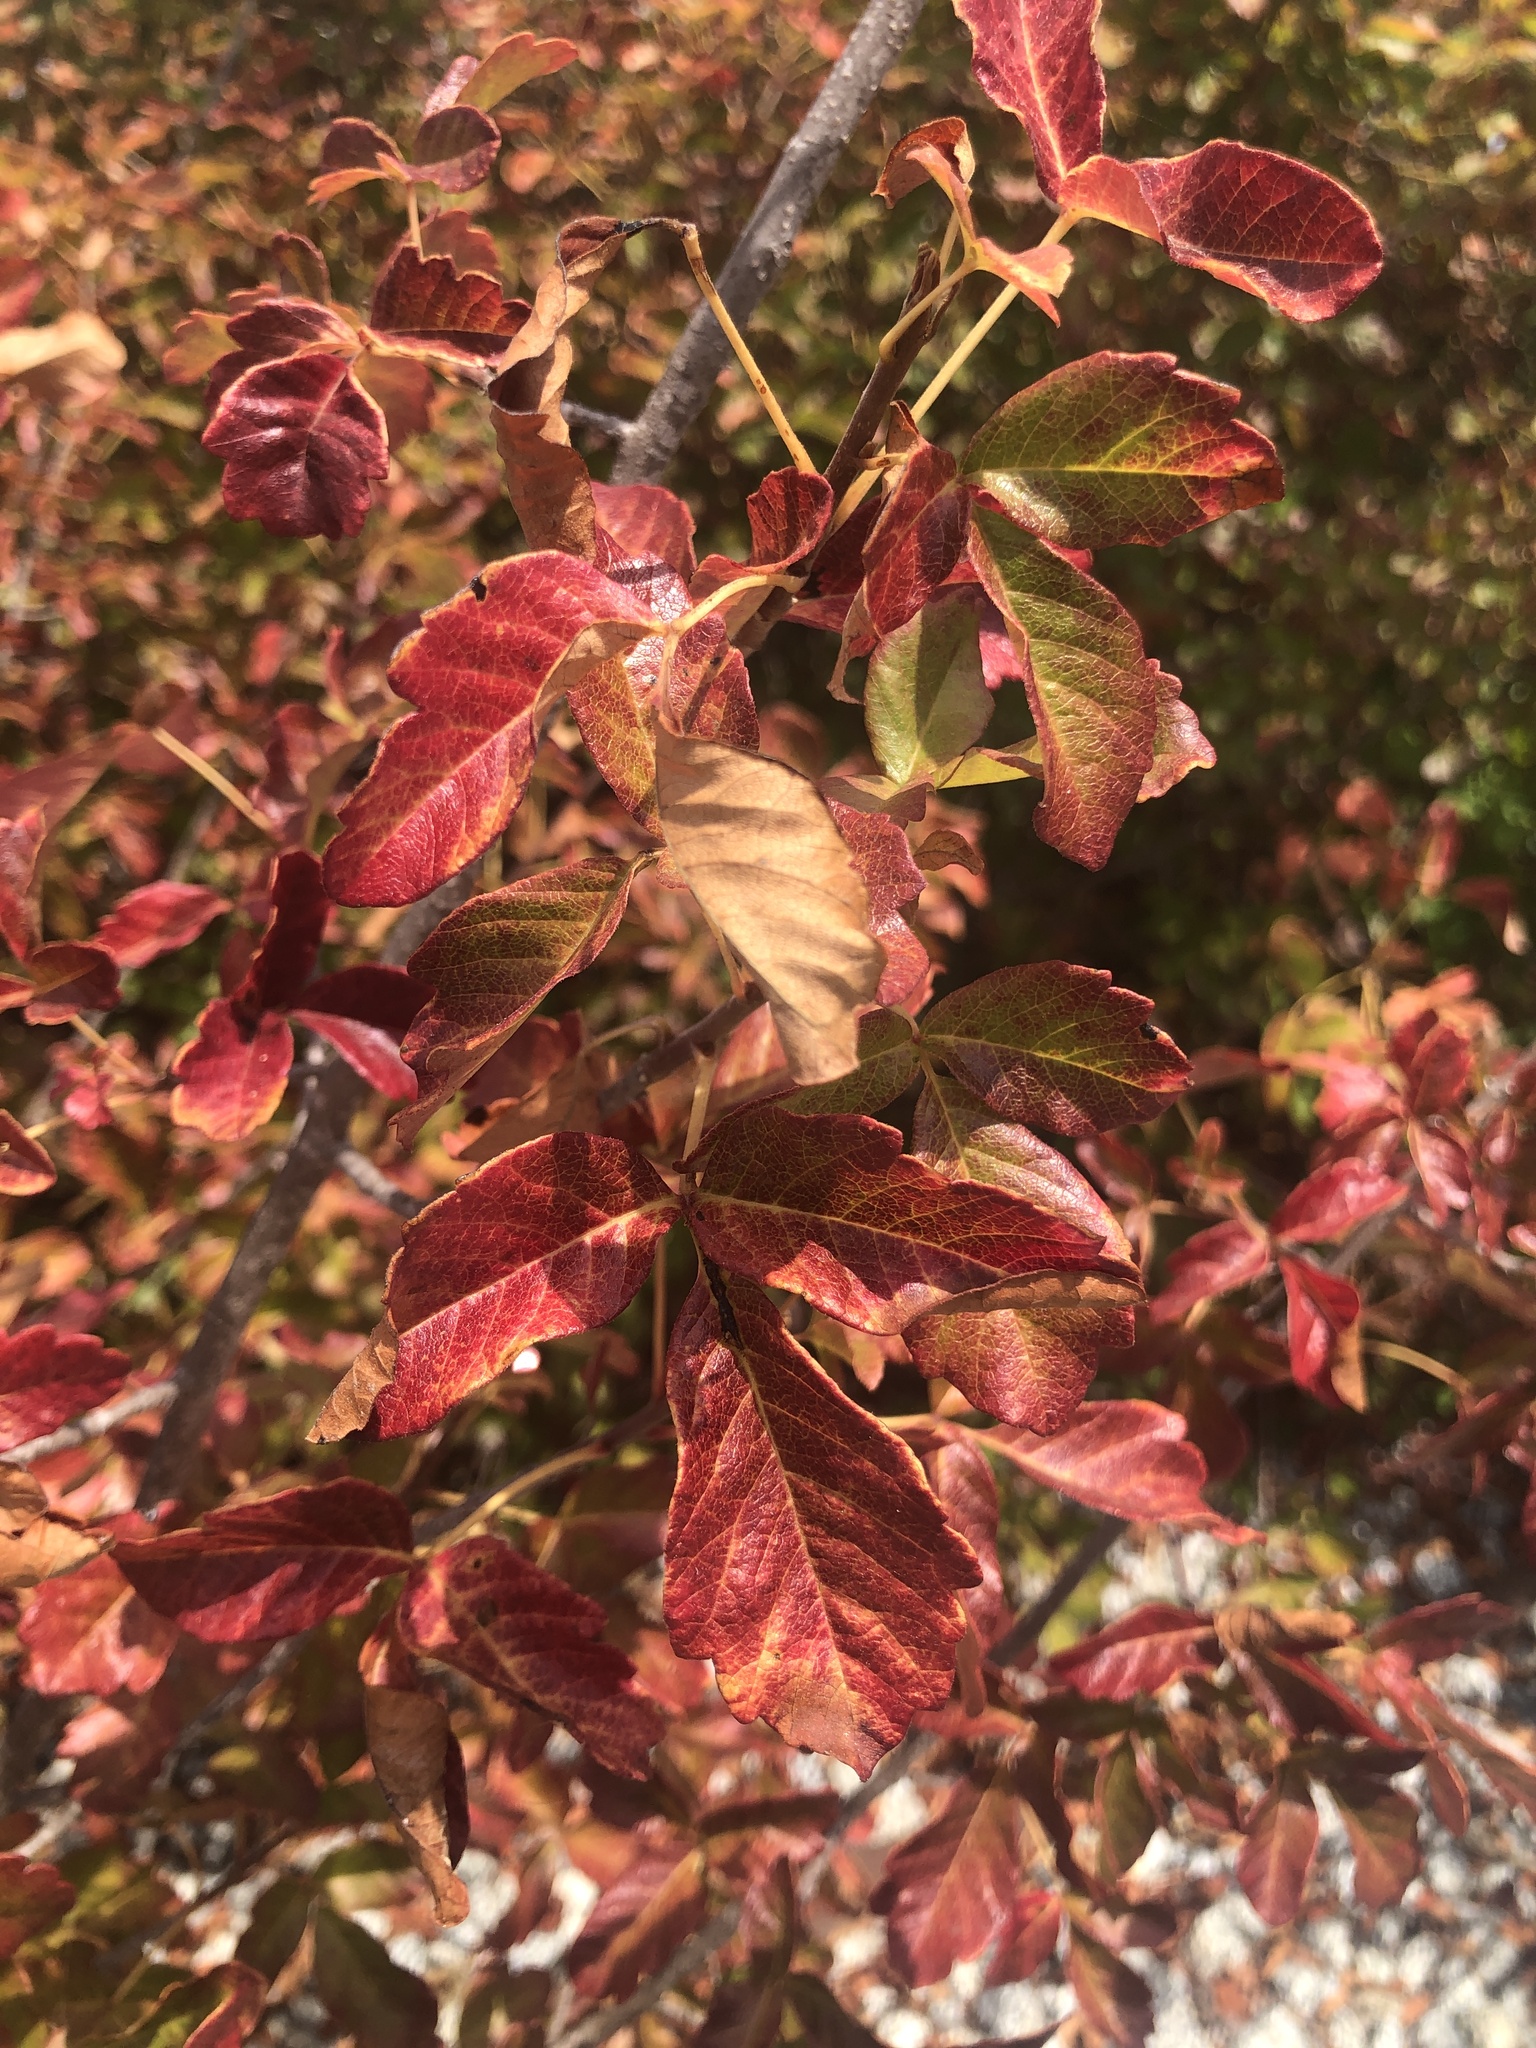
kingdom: Plantae
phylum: Tracheophyta
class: Magnoliopsida
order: Sapindales
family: Anacardiaceae
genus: Toxicodendron
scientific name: Toxicodendron diversilobum
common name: Pacific poison-oak
